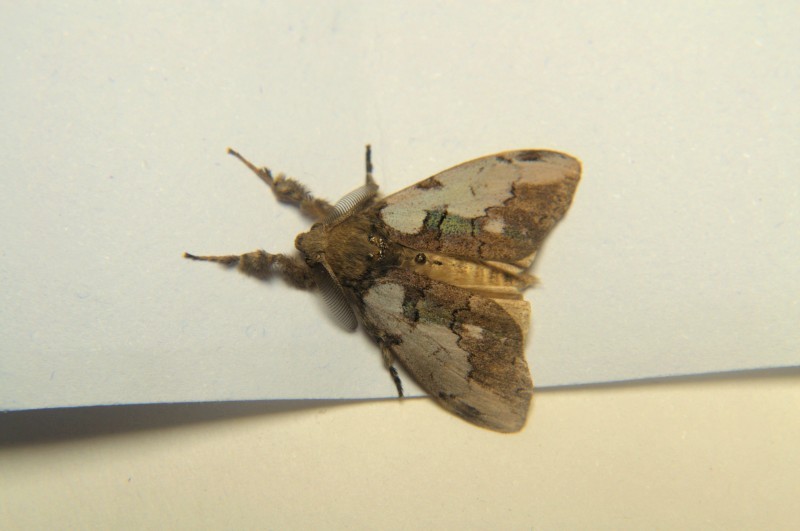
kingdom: Animalia
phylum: Arthropoda
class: Insecta
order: Lepidoptera
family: Erebidae
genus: Olene
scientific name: Olene mendosa
